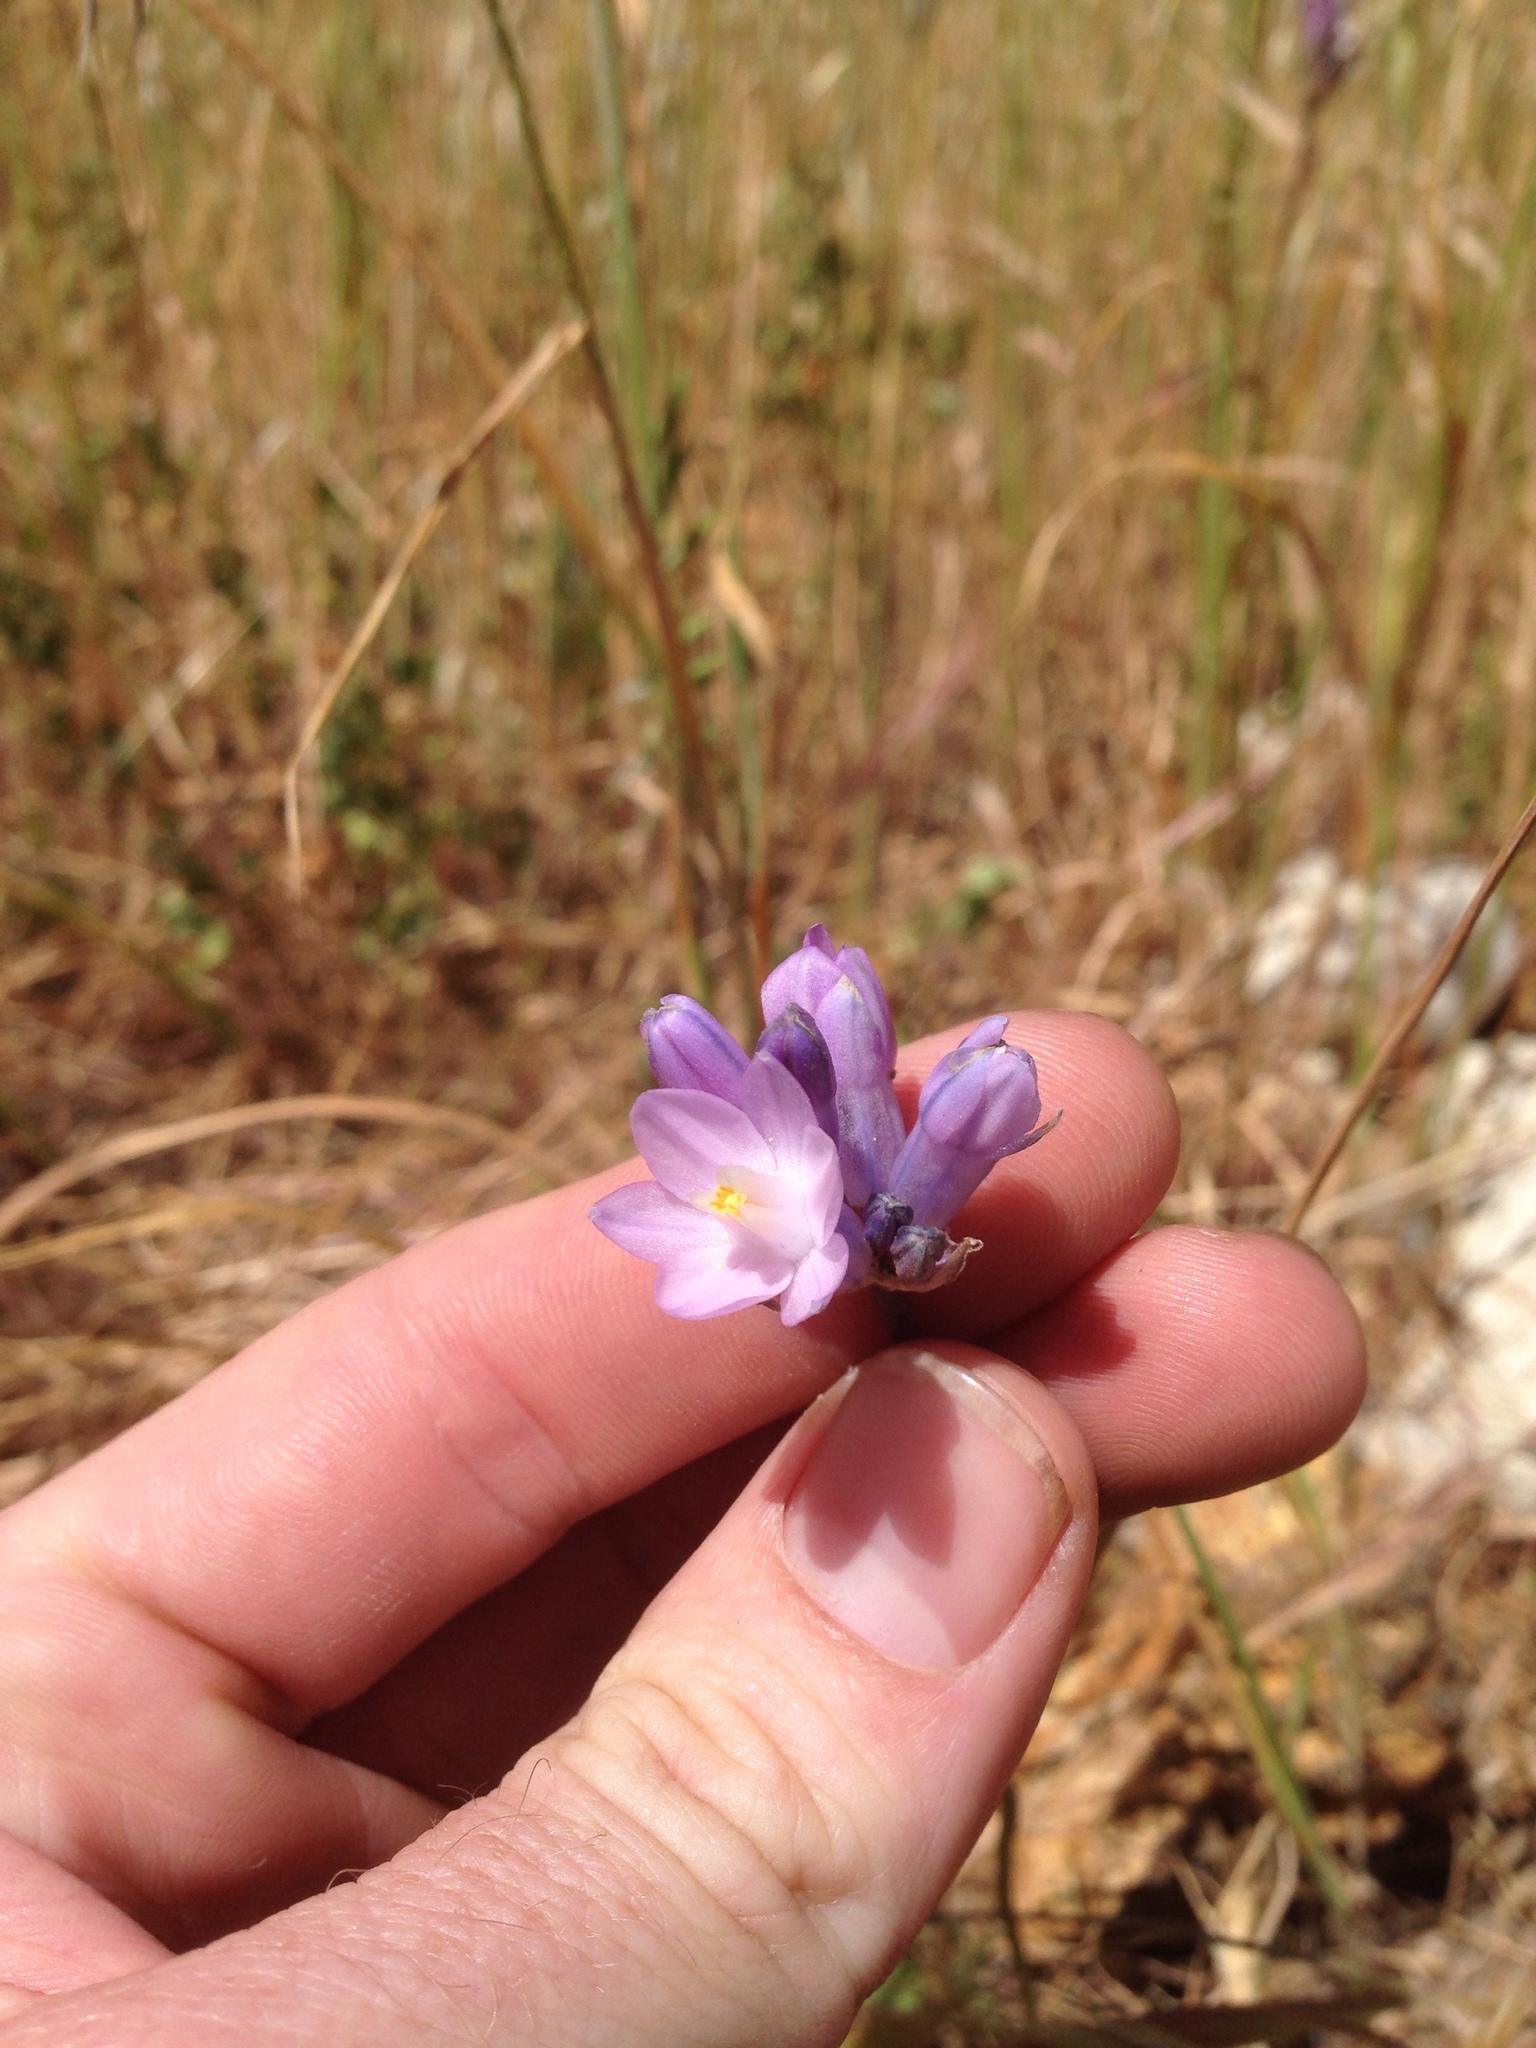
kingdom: Plantae
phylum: Tracheophyta
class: Liliopsida
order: Asparagales
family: Asparagaceae
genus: Dipterostemon
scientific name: Dipterostemon capitatus
